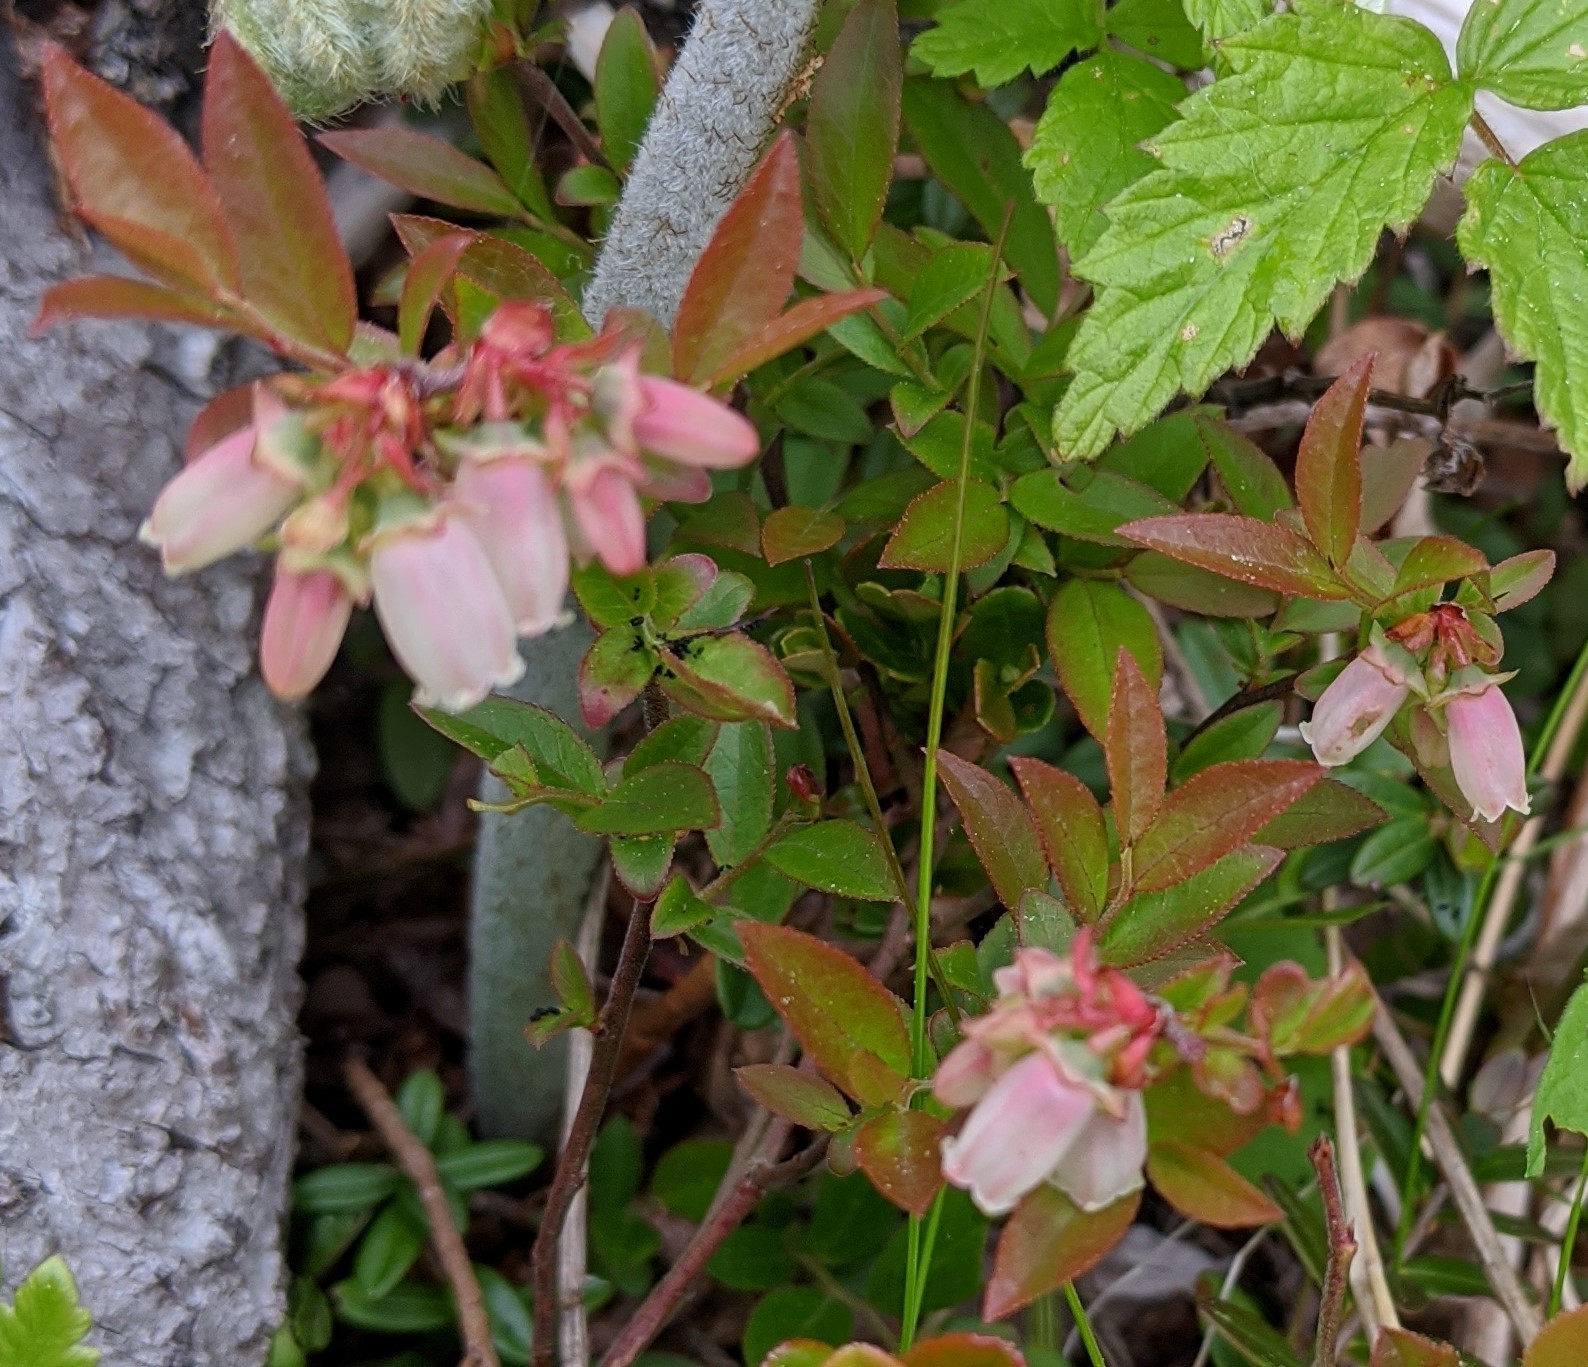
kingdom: Plantae
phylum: Tracheophyta
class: Magnoliopsida
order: Ericales
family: Ericaceae
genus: Vaccinium
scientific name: Vaccinium angustifolium
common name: Early lowbush blueberry
